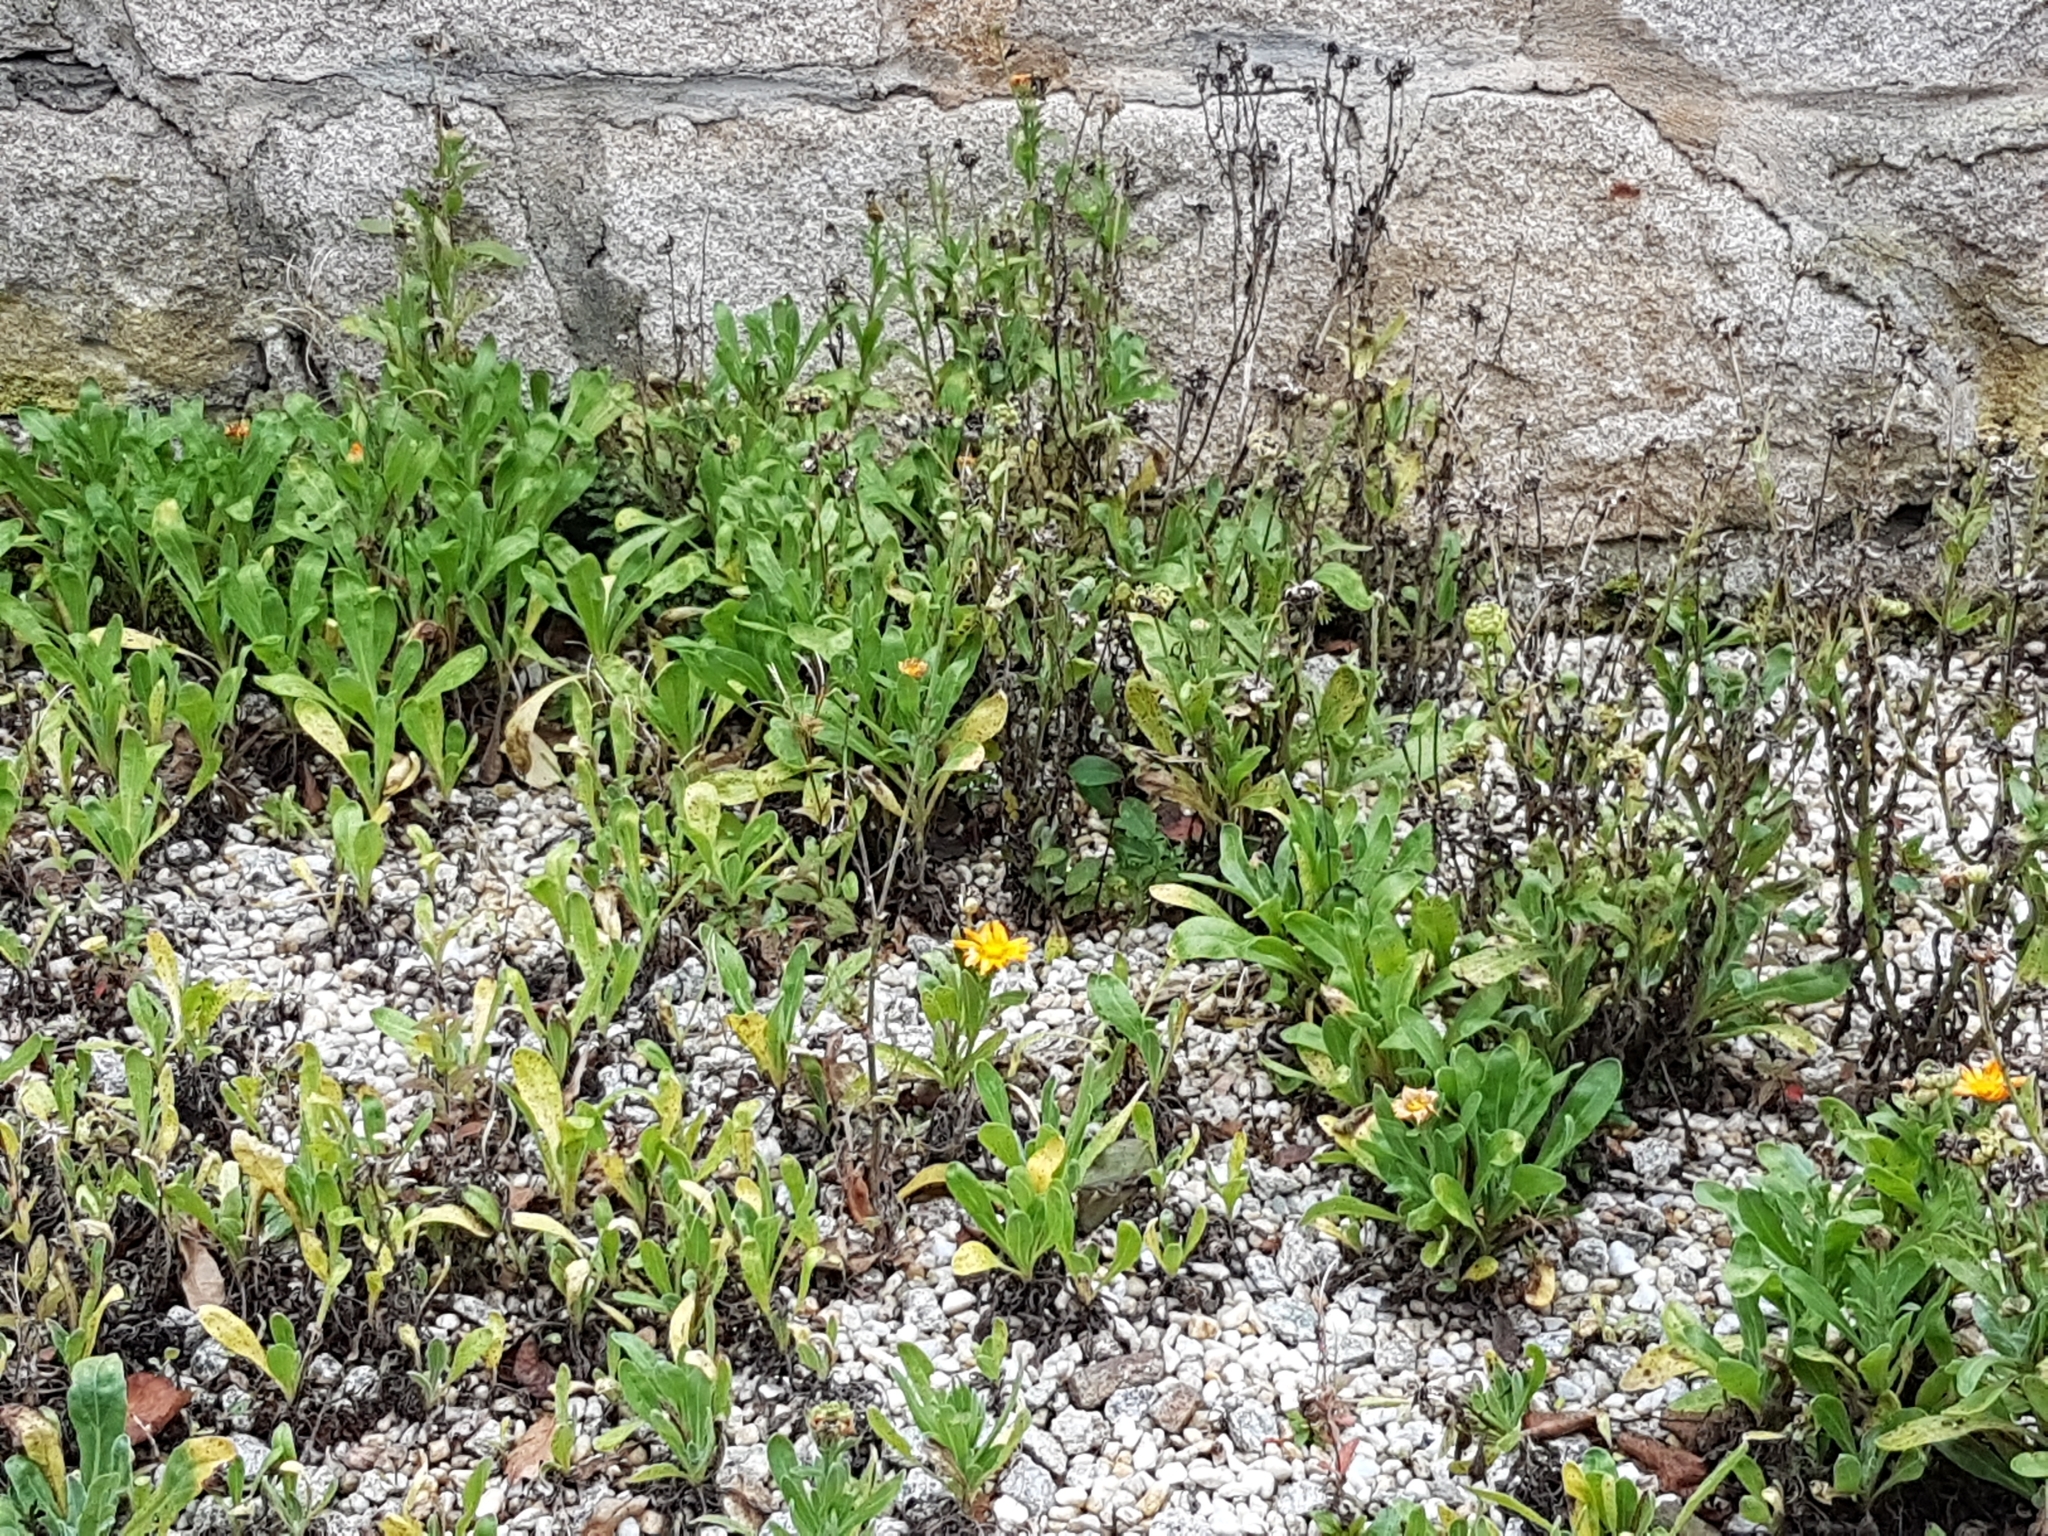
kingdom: Plantae
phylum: Tracheophyta
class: Magnoliopsida
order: Asterales
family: Asteraceae
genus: Calendula
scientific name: Calendula officinalis
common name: Pot marigold
